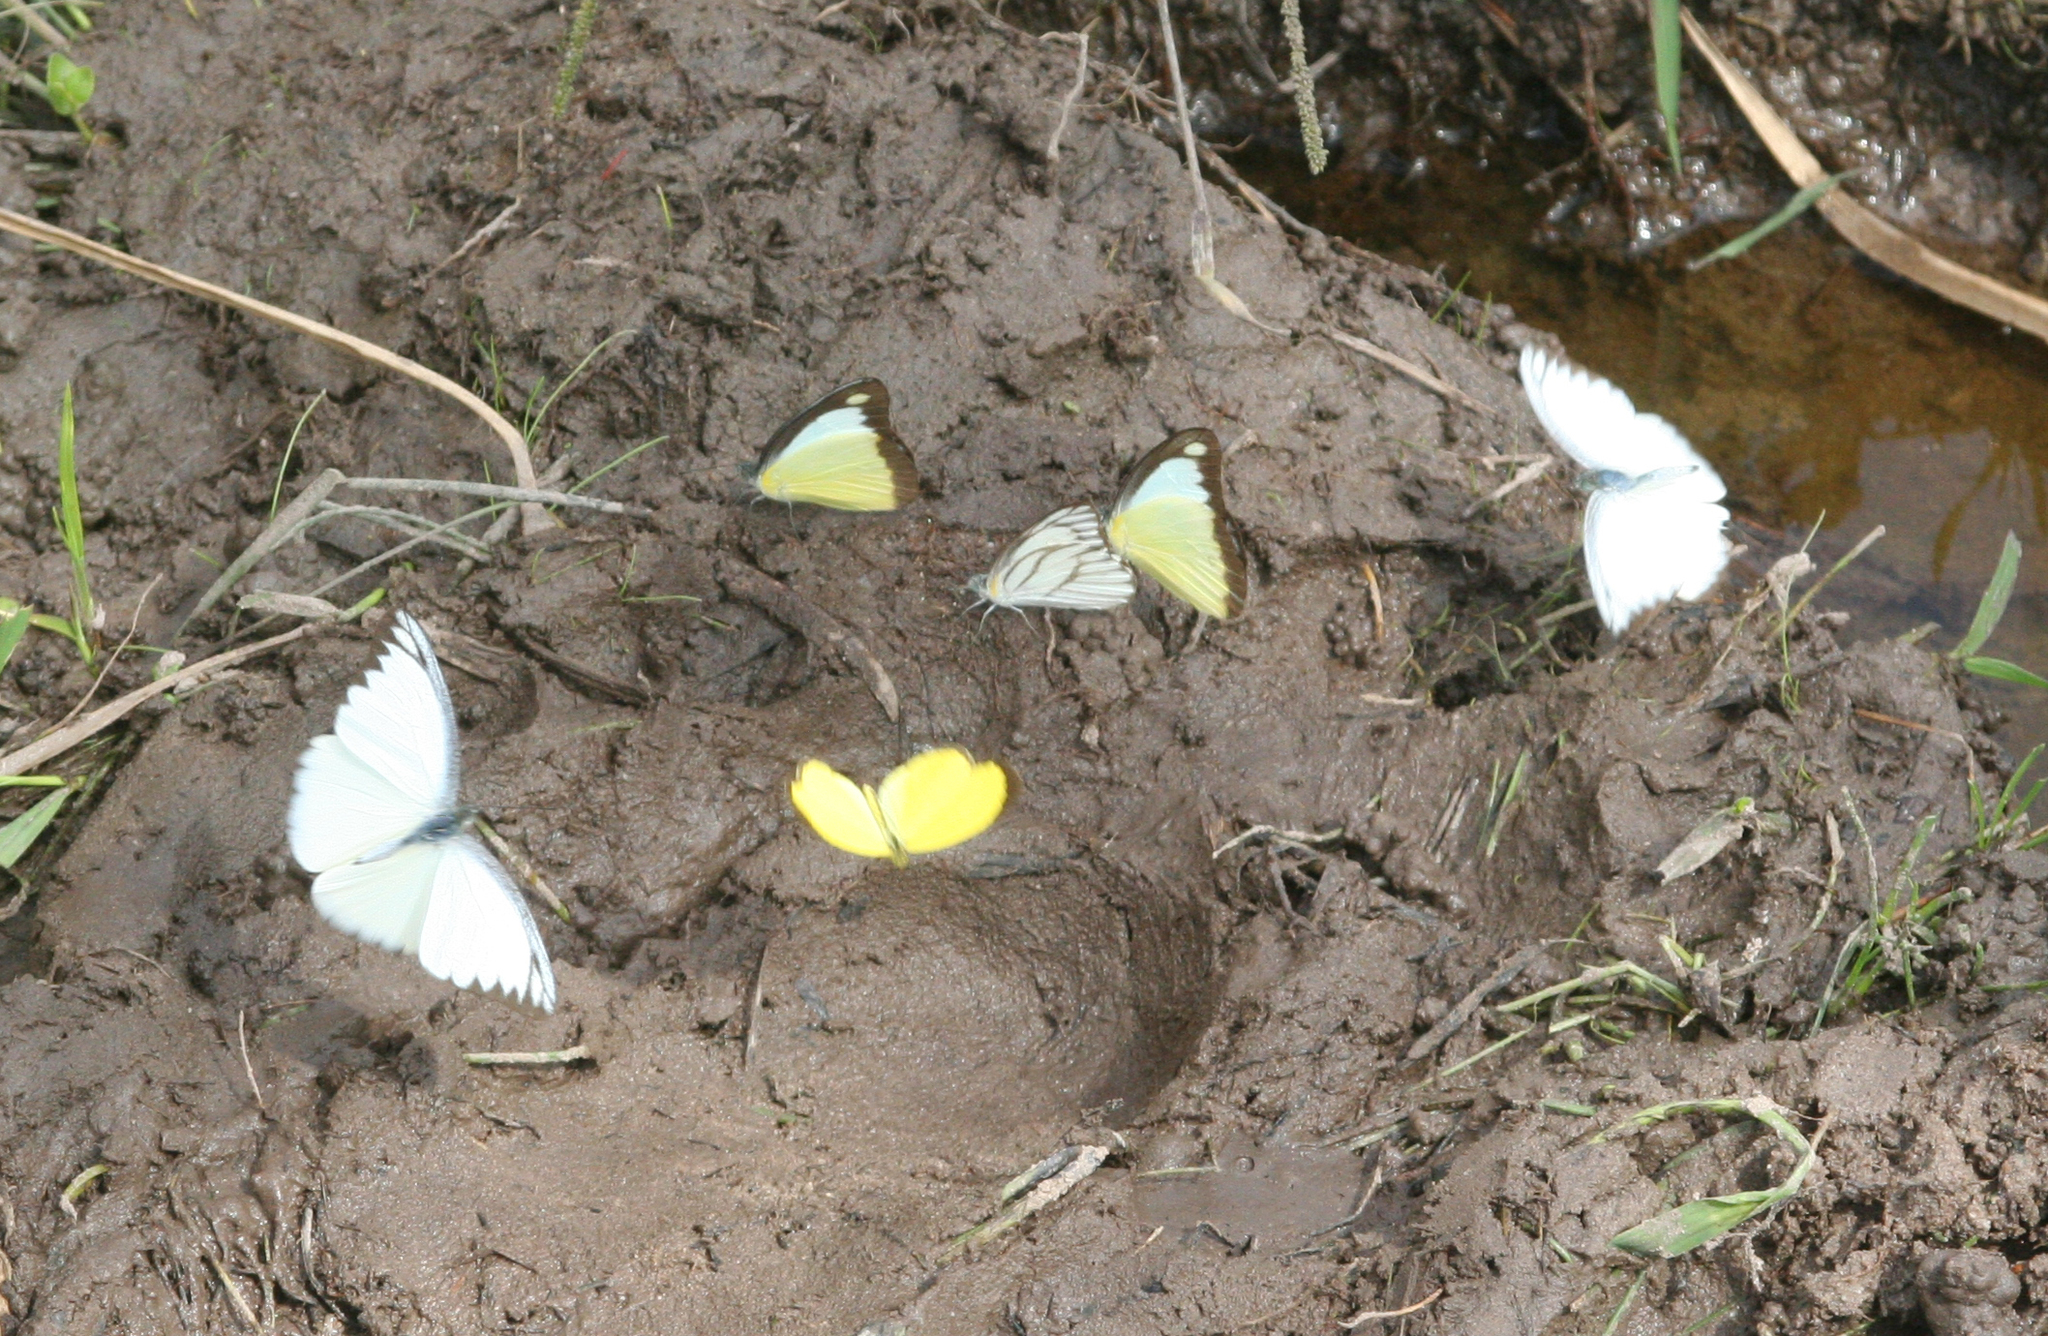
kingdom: Animalia
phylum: Arthropoda
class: Insecta
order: Lepidoptera
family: Pieridae
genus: Appias
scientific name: Appias lyncida
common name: Chocolate albatross
